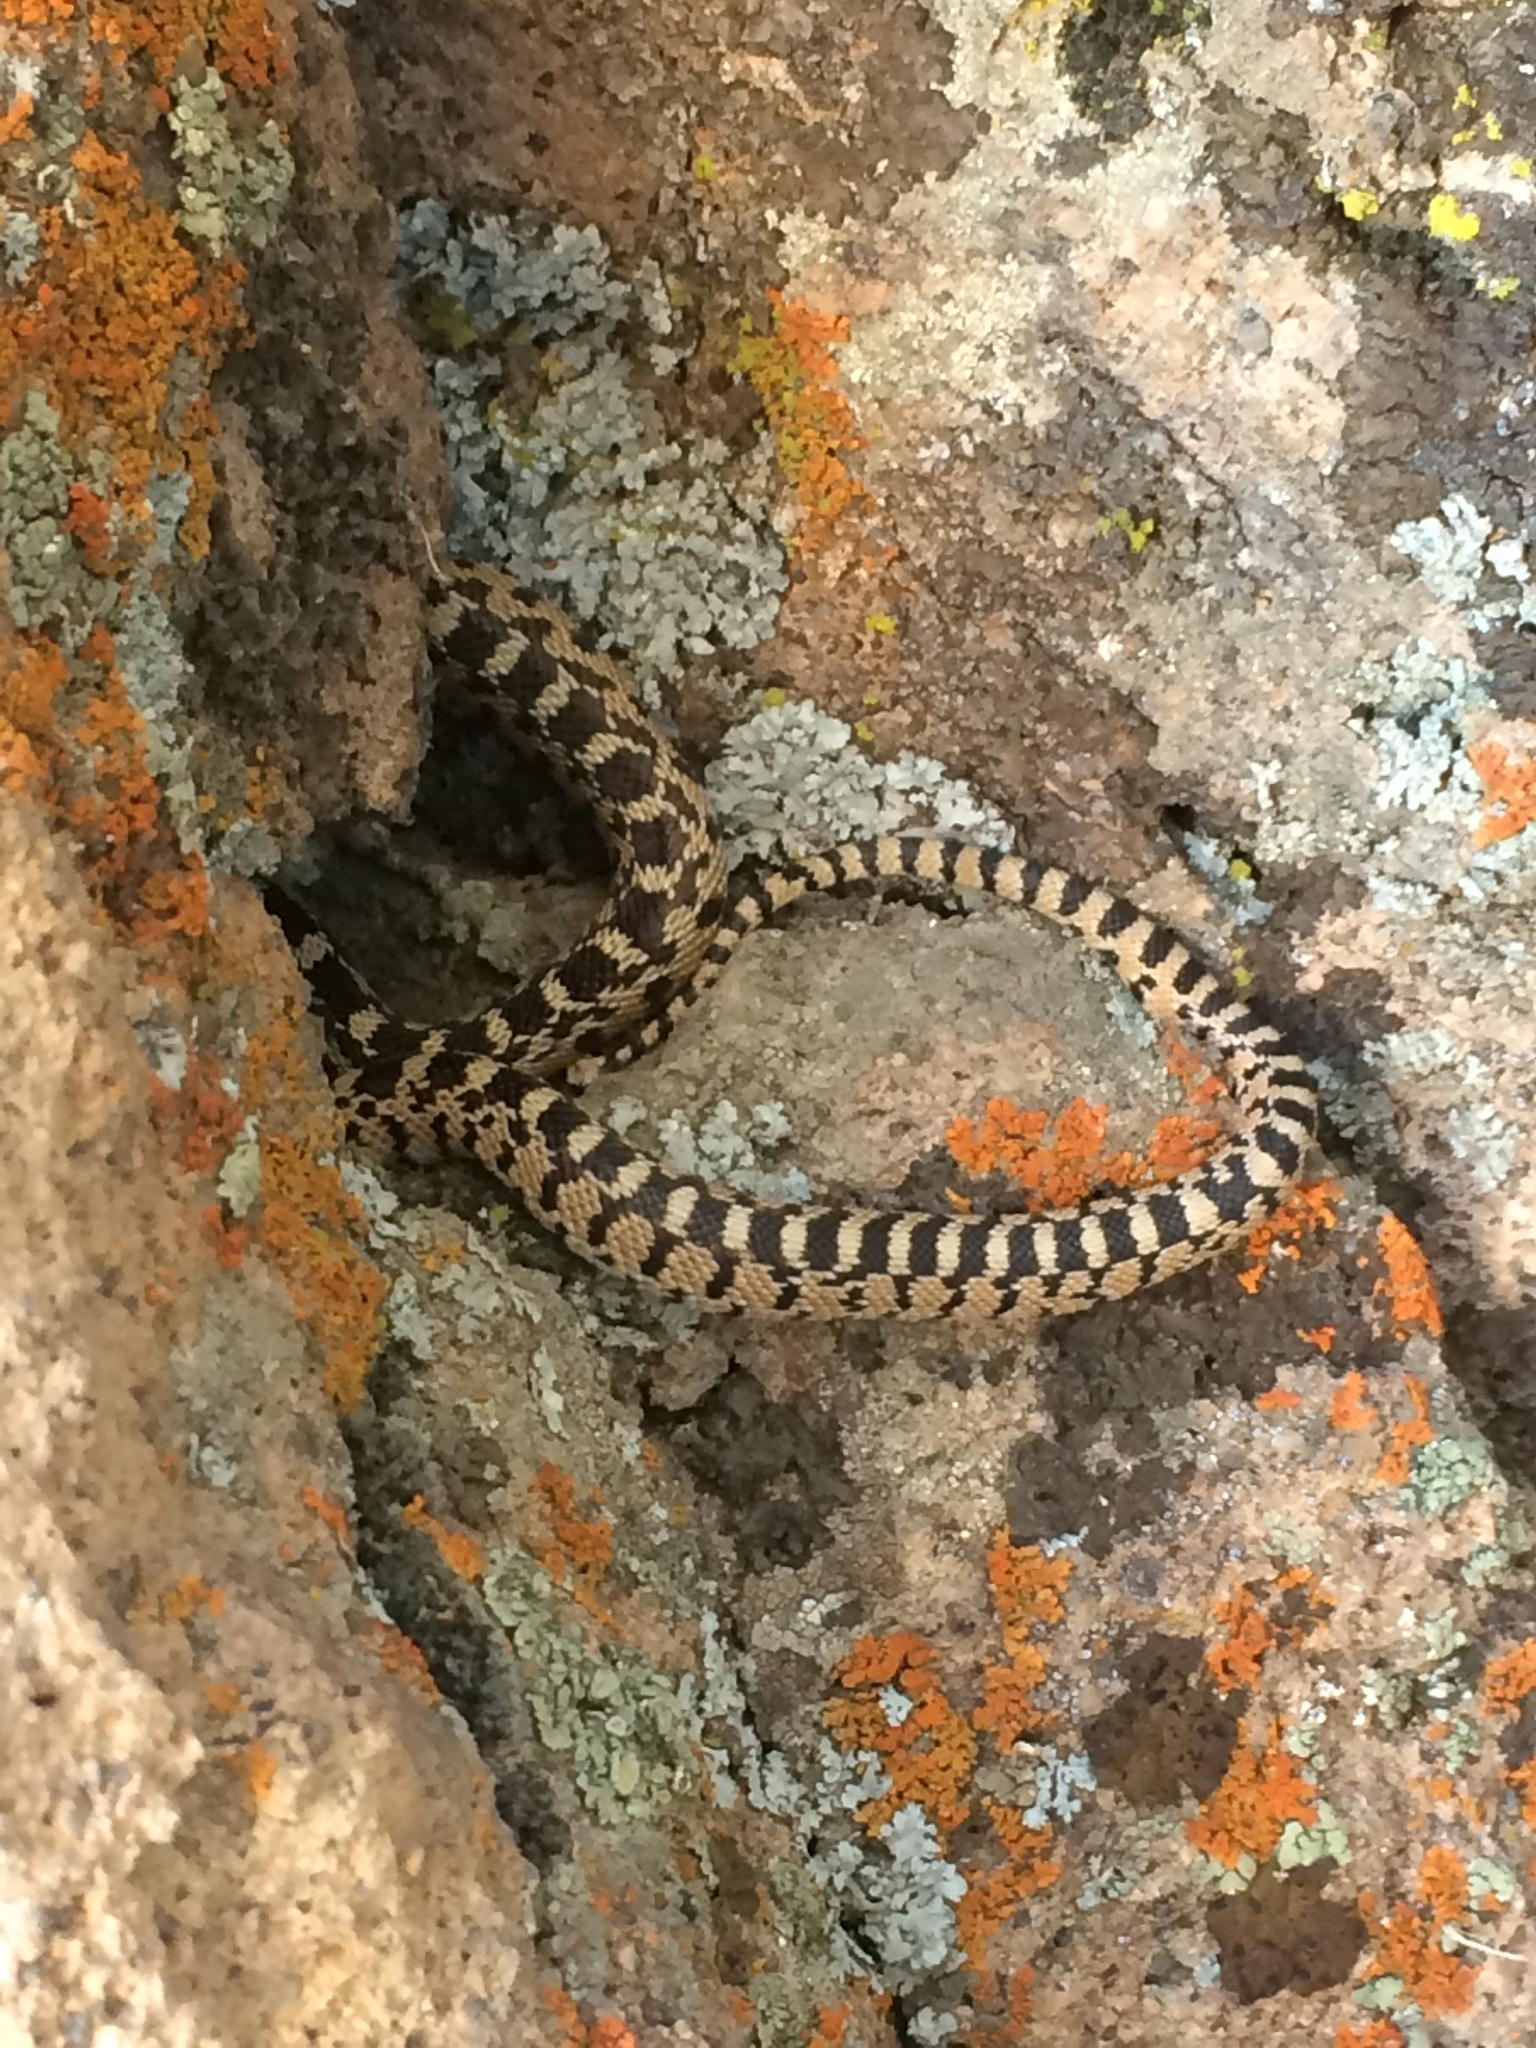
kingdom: Animalia
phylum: Chordata
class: Squamata
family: Colubridae
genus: Pituophis
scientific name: Pituophis catenifer
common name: Gopher snake
